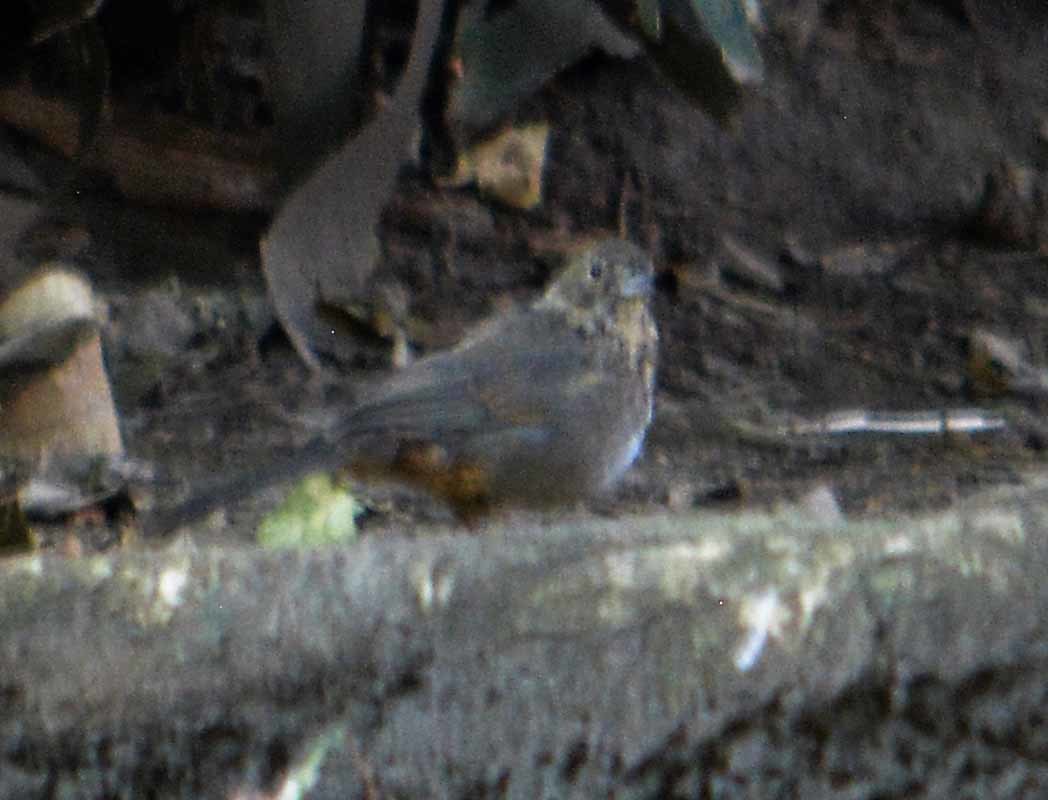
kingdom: Animalia
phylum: Chordata
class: Aves
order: Passeriformes
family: Passerellidae
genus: Melozone
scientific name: Melozone fusca
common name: Canyon towhee
